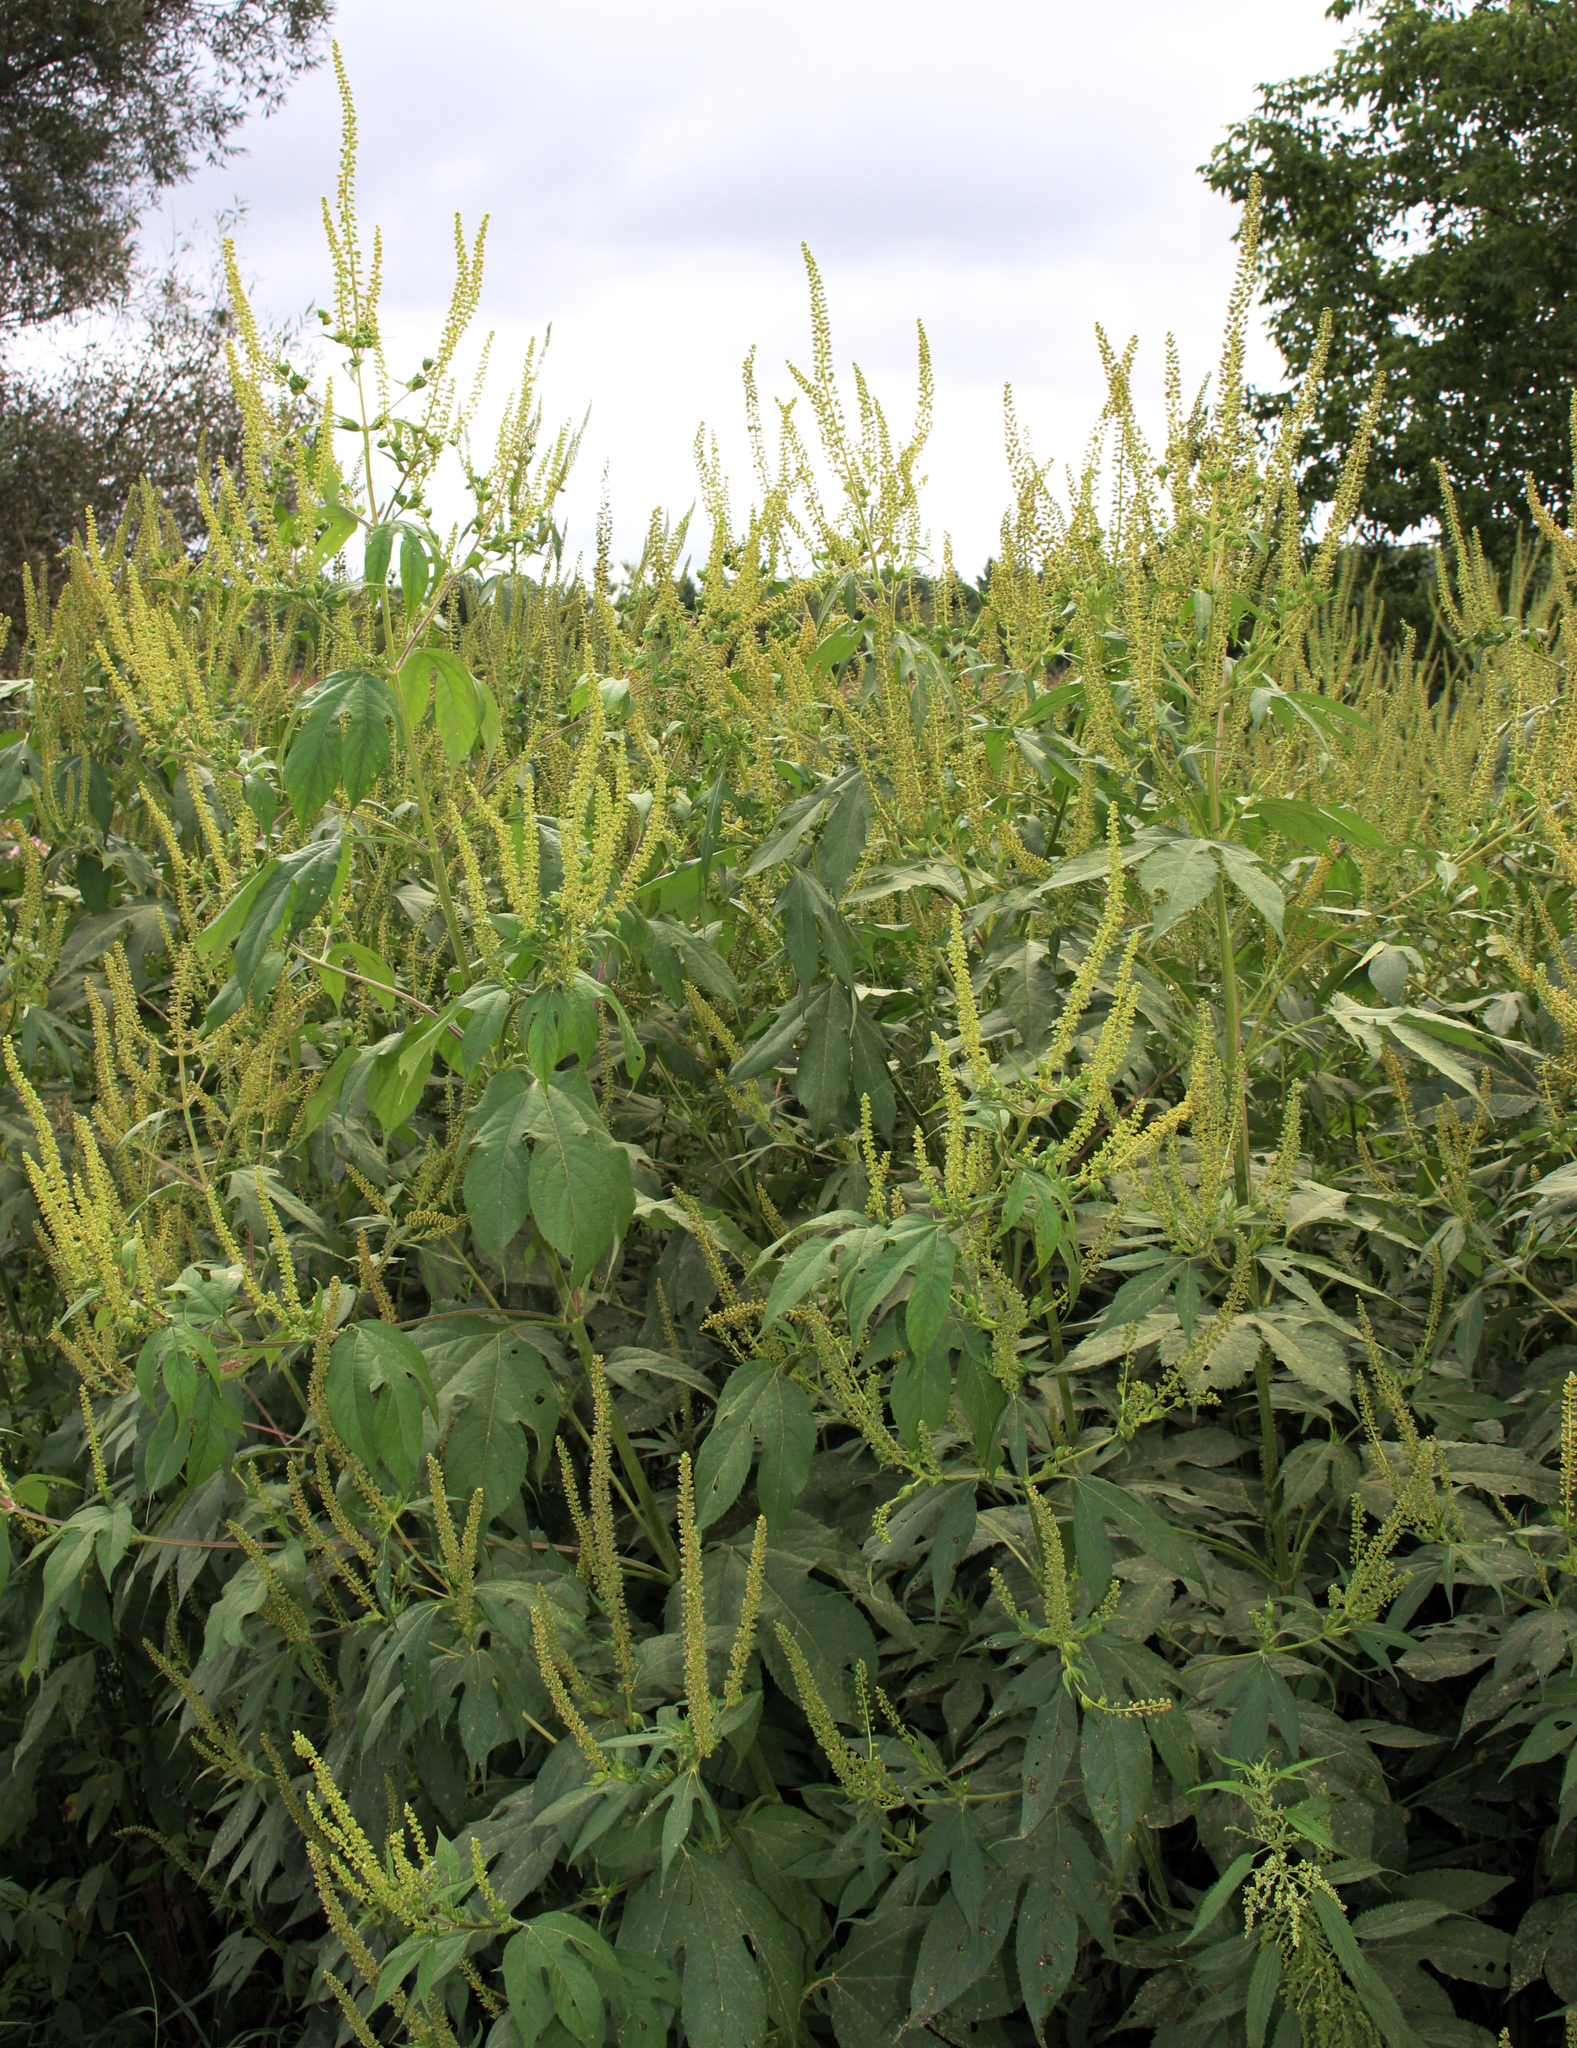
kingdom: Plantae
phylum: Tracheophyta
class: Magnoliopsida
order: Asterales
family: Asteraceae
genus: Ambrosia
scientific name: Ambrosia trifida
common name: Giant ragweed
